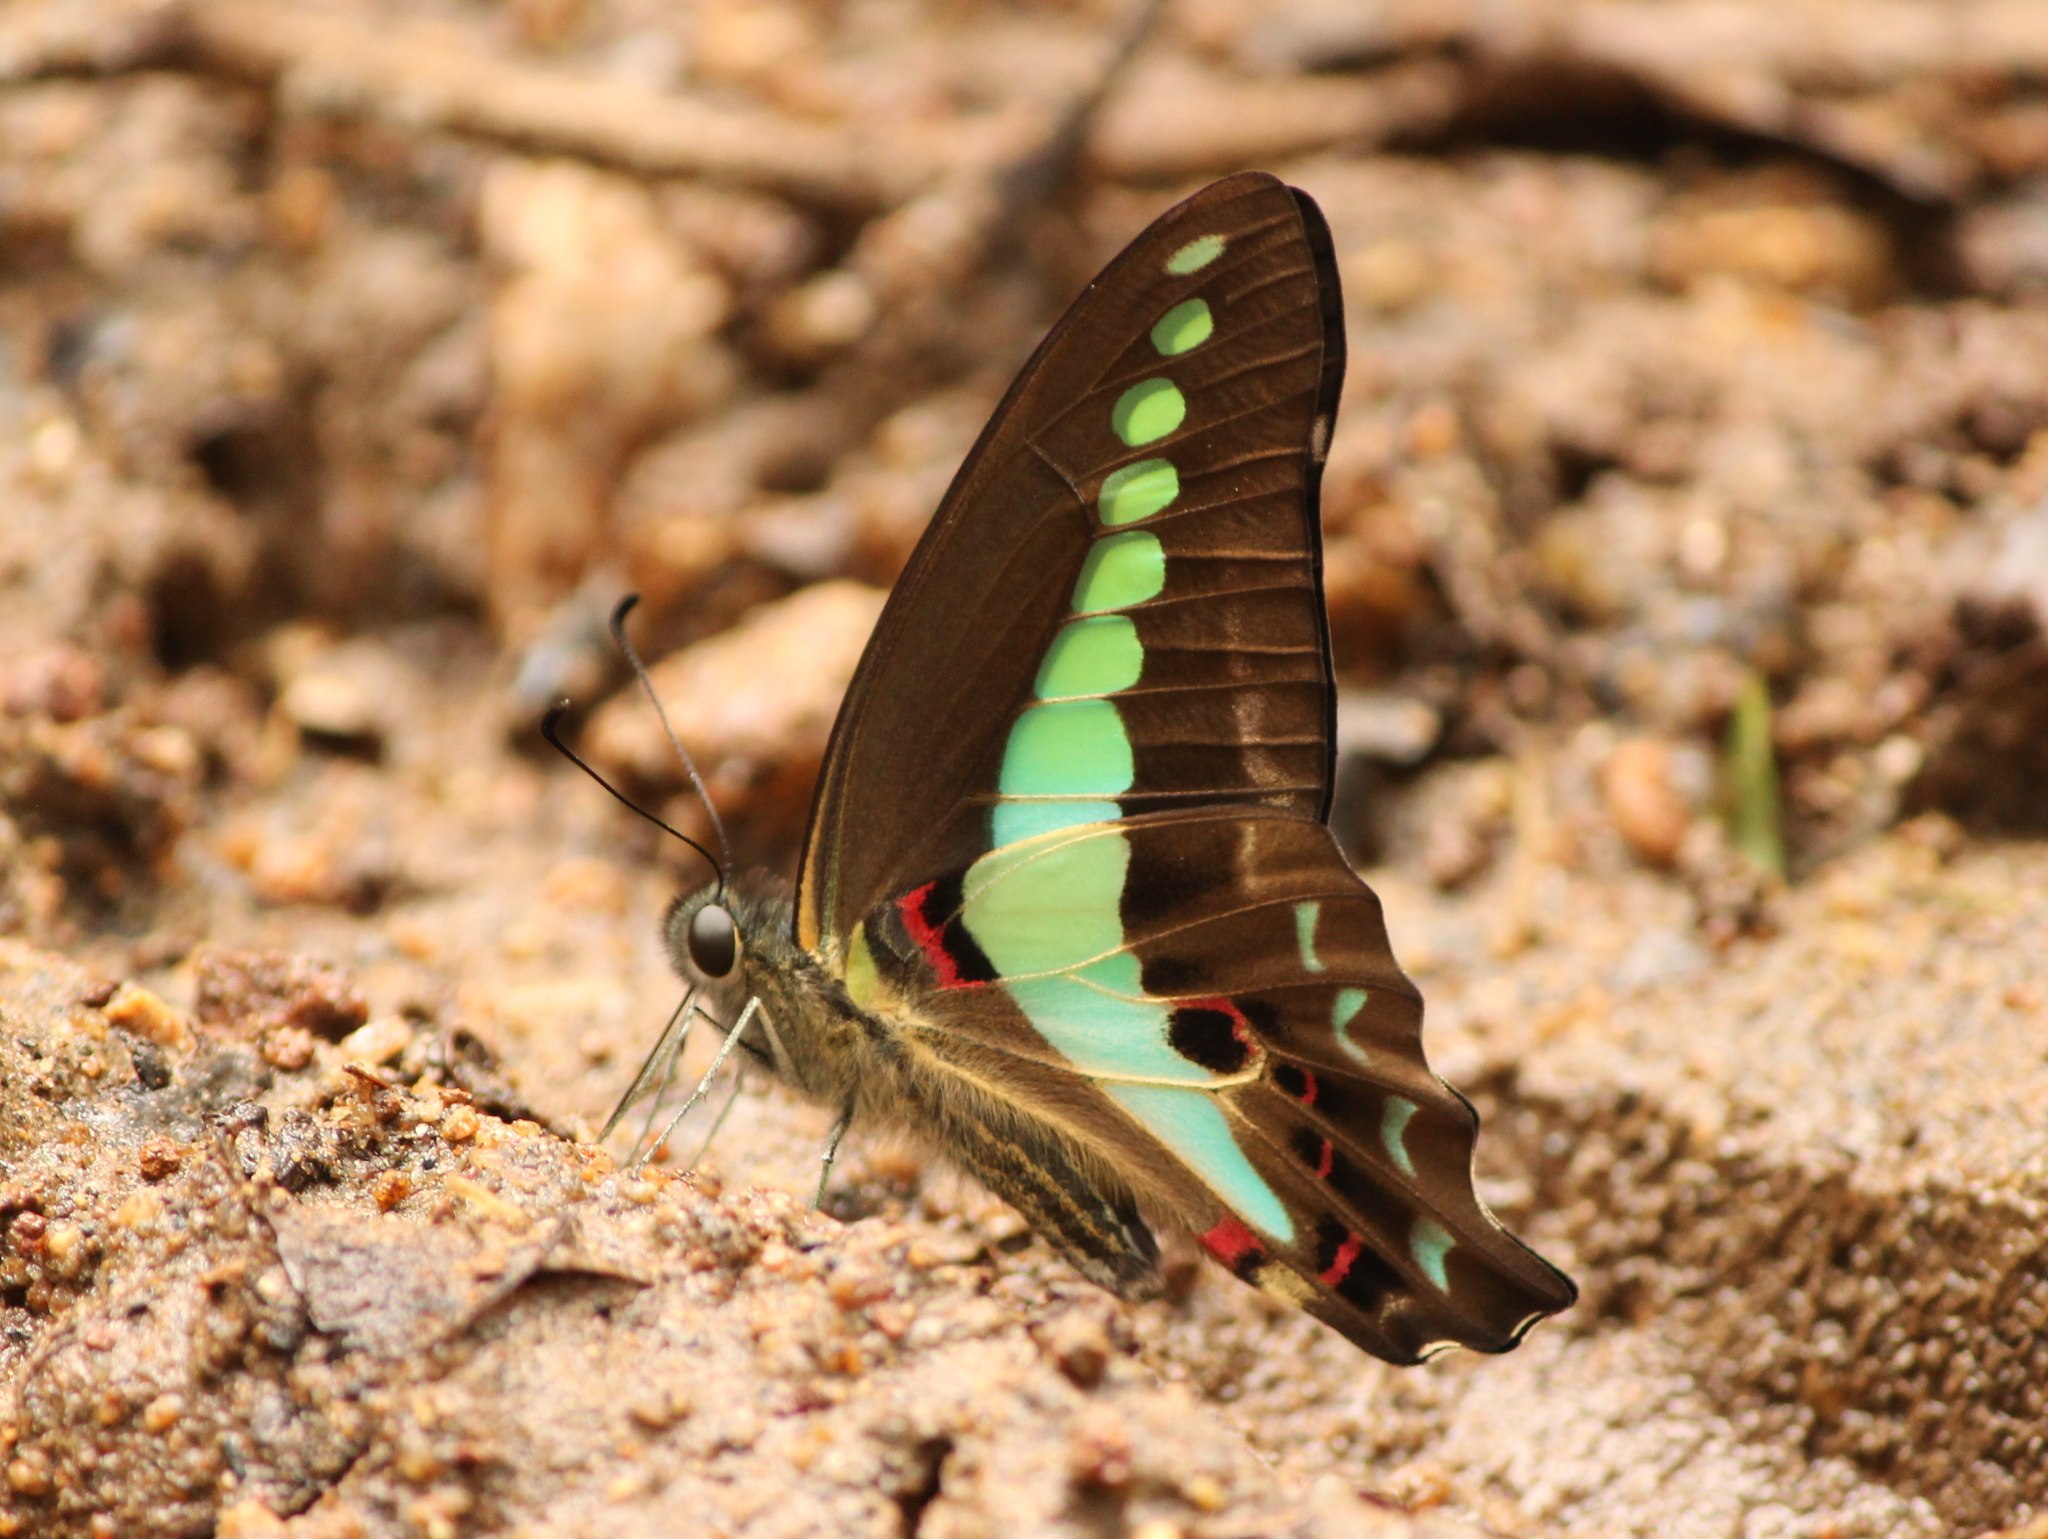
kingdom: Animalia
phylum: Arthropoda
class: Insecta
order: Lepidoptera
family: Papilionidae
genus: Graphium
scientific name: Graphium
